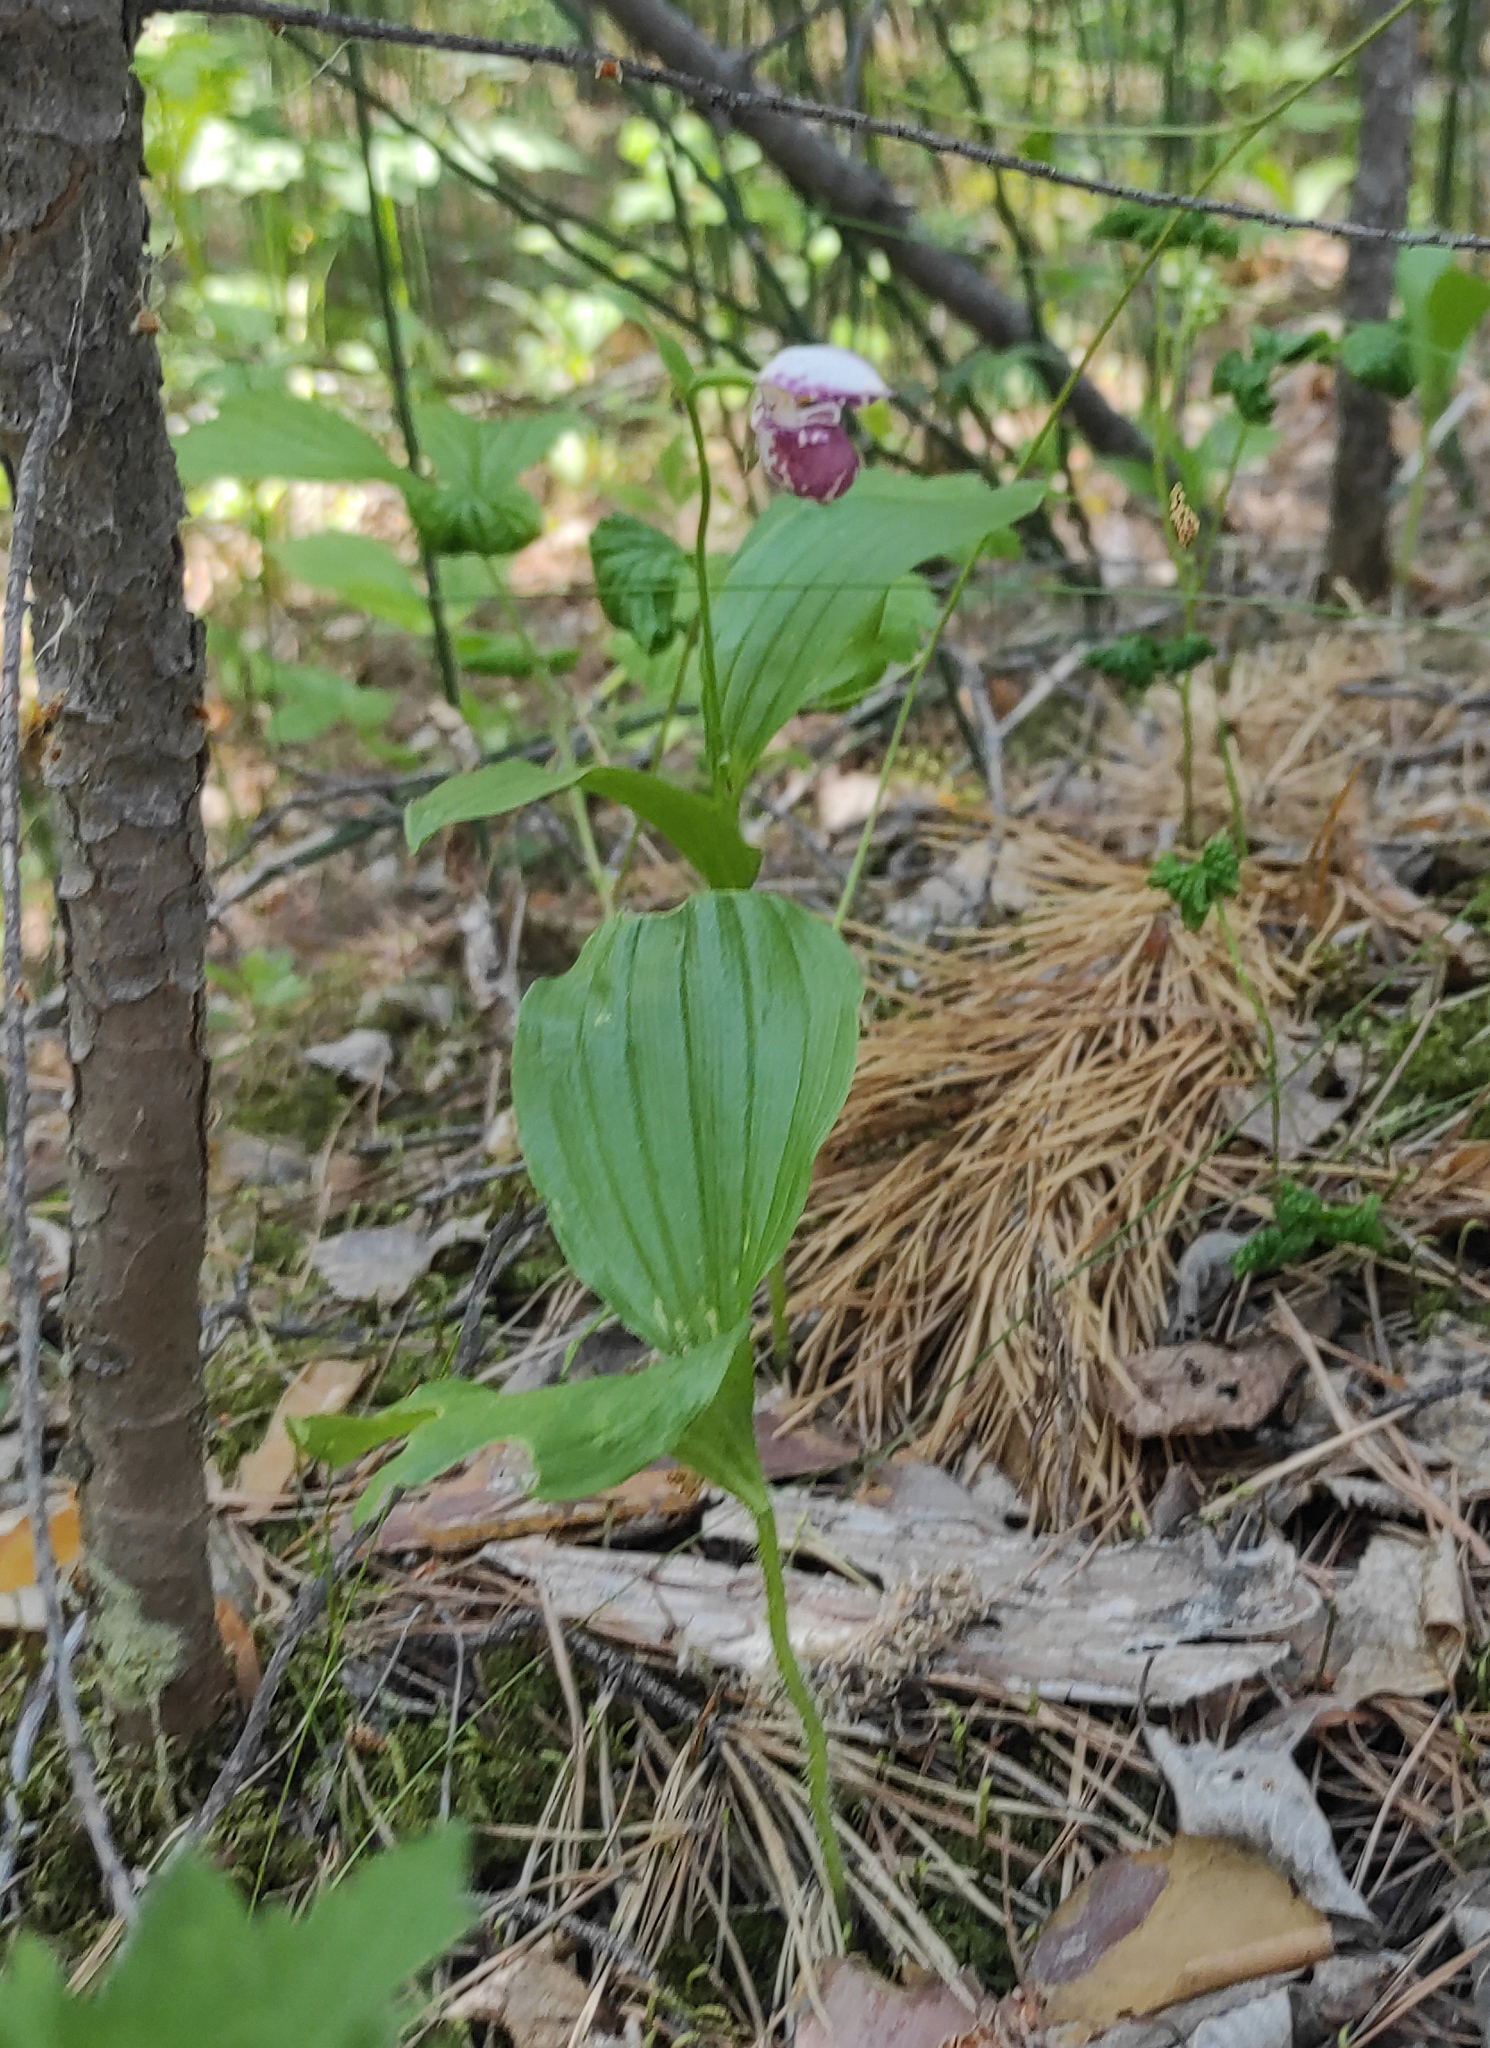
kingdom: Plantae
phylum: Tracheophyta
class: Liliopsida
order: Asparagales
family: Orchidaceae
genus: Cypripedium
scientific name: Cypripedium guttatum
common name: Pink lady slipper
